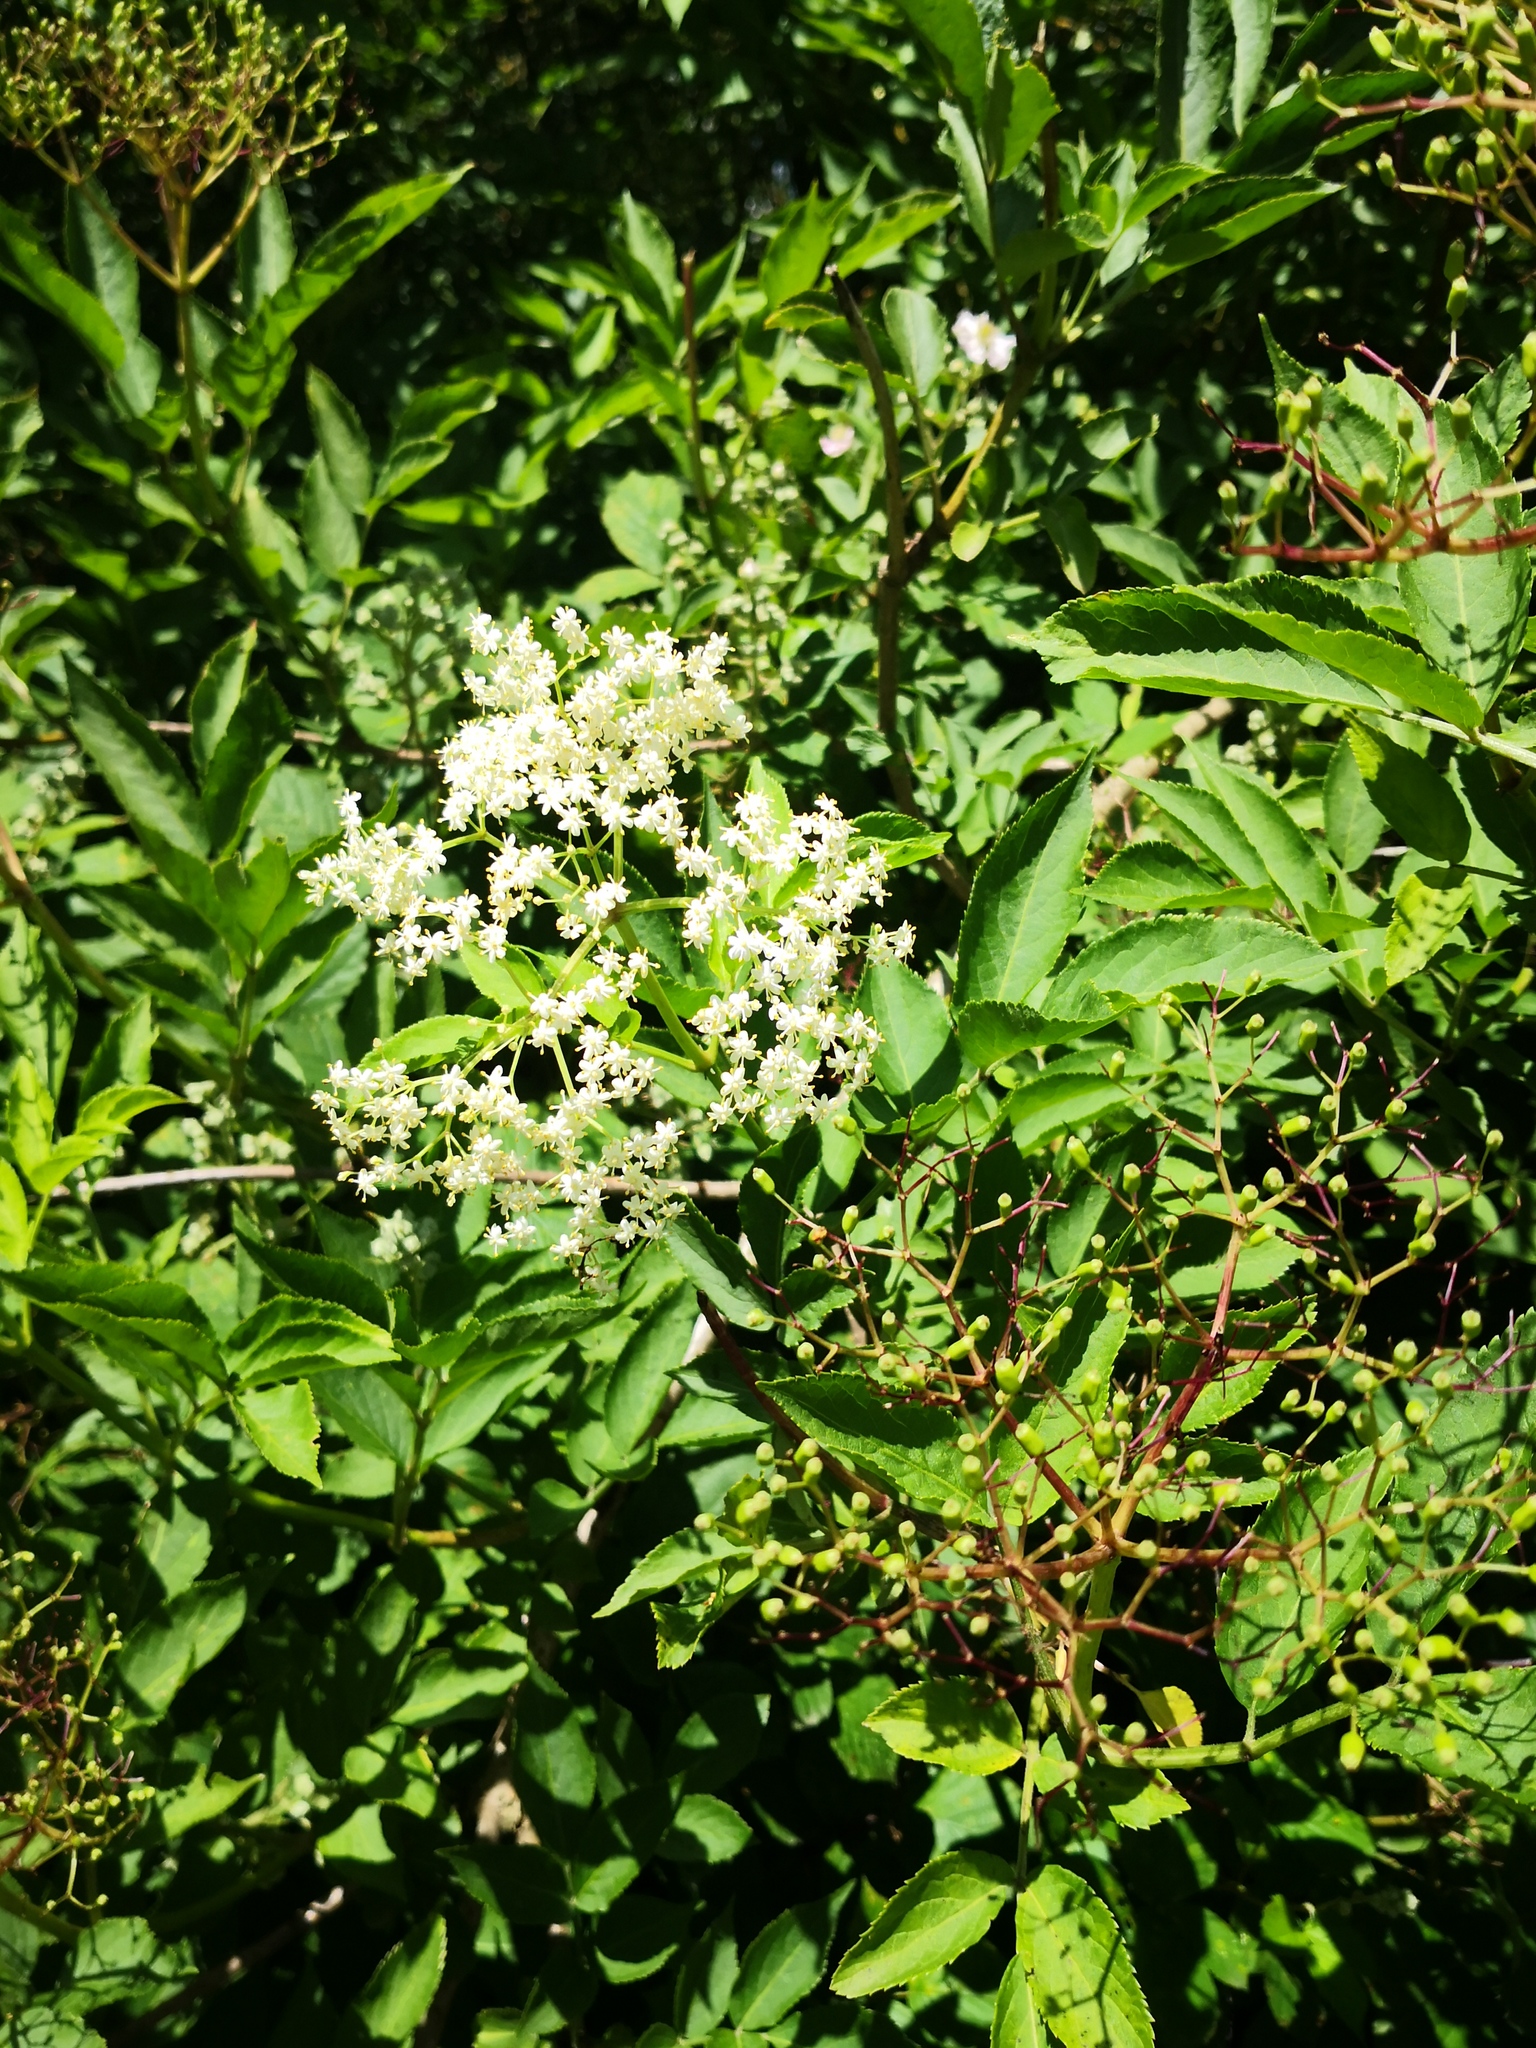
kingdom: Plantae
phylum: Tracheophyta
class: Magnoliopsida
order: Dipsacales
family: Viburnaceae
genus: Sambucus
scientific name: Sambucus nigra
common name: Elder
